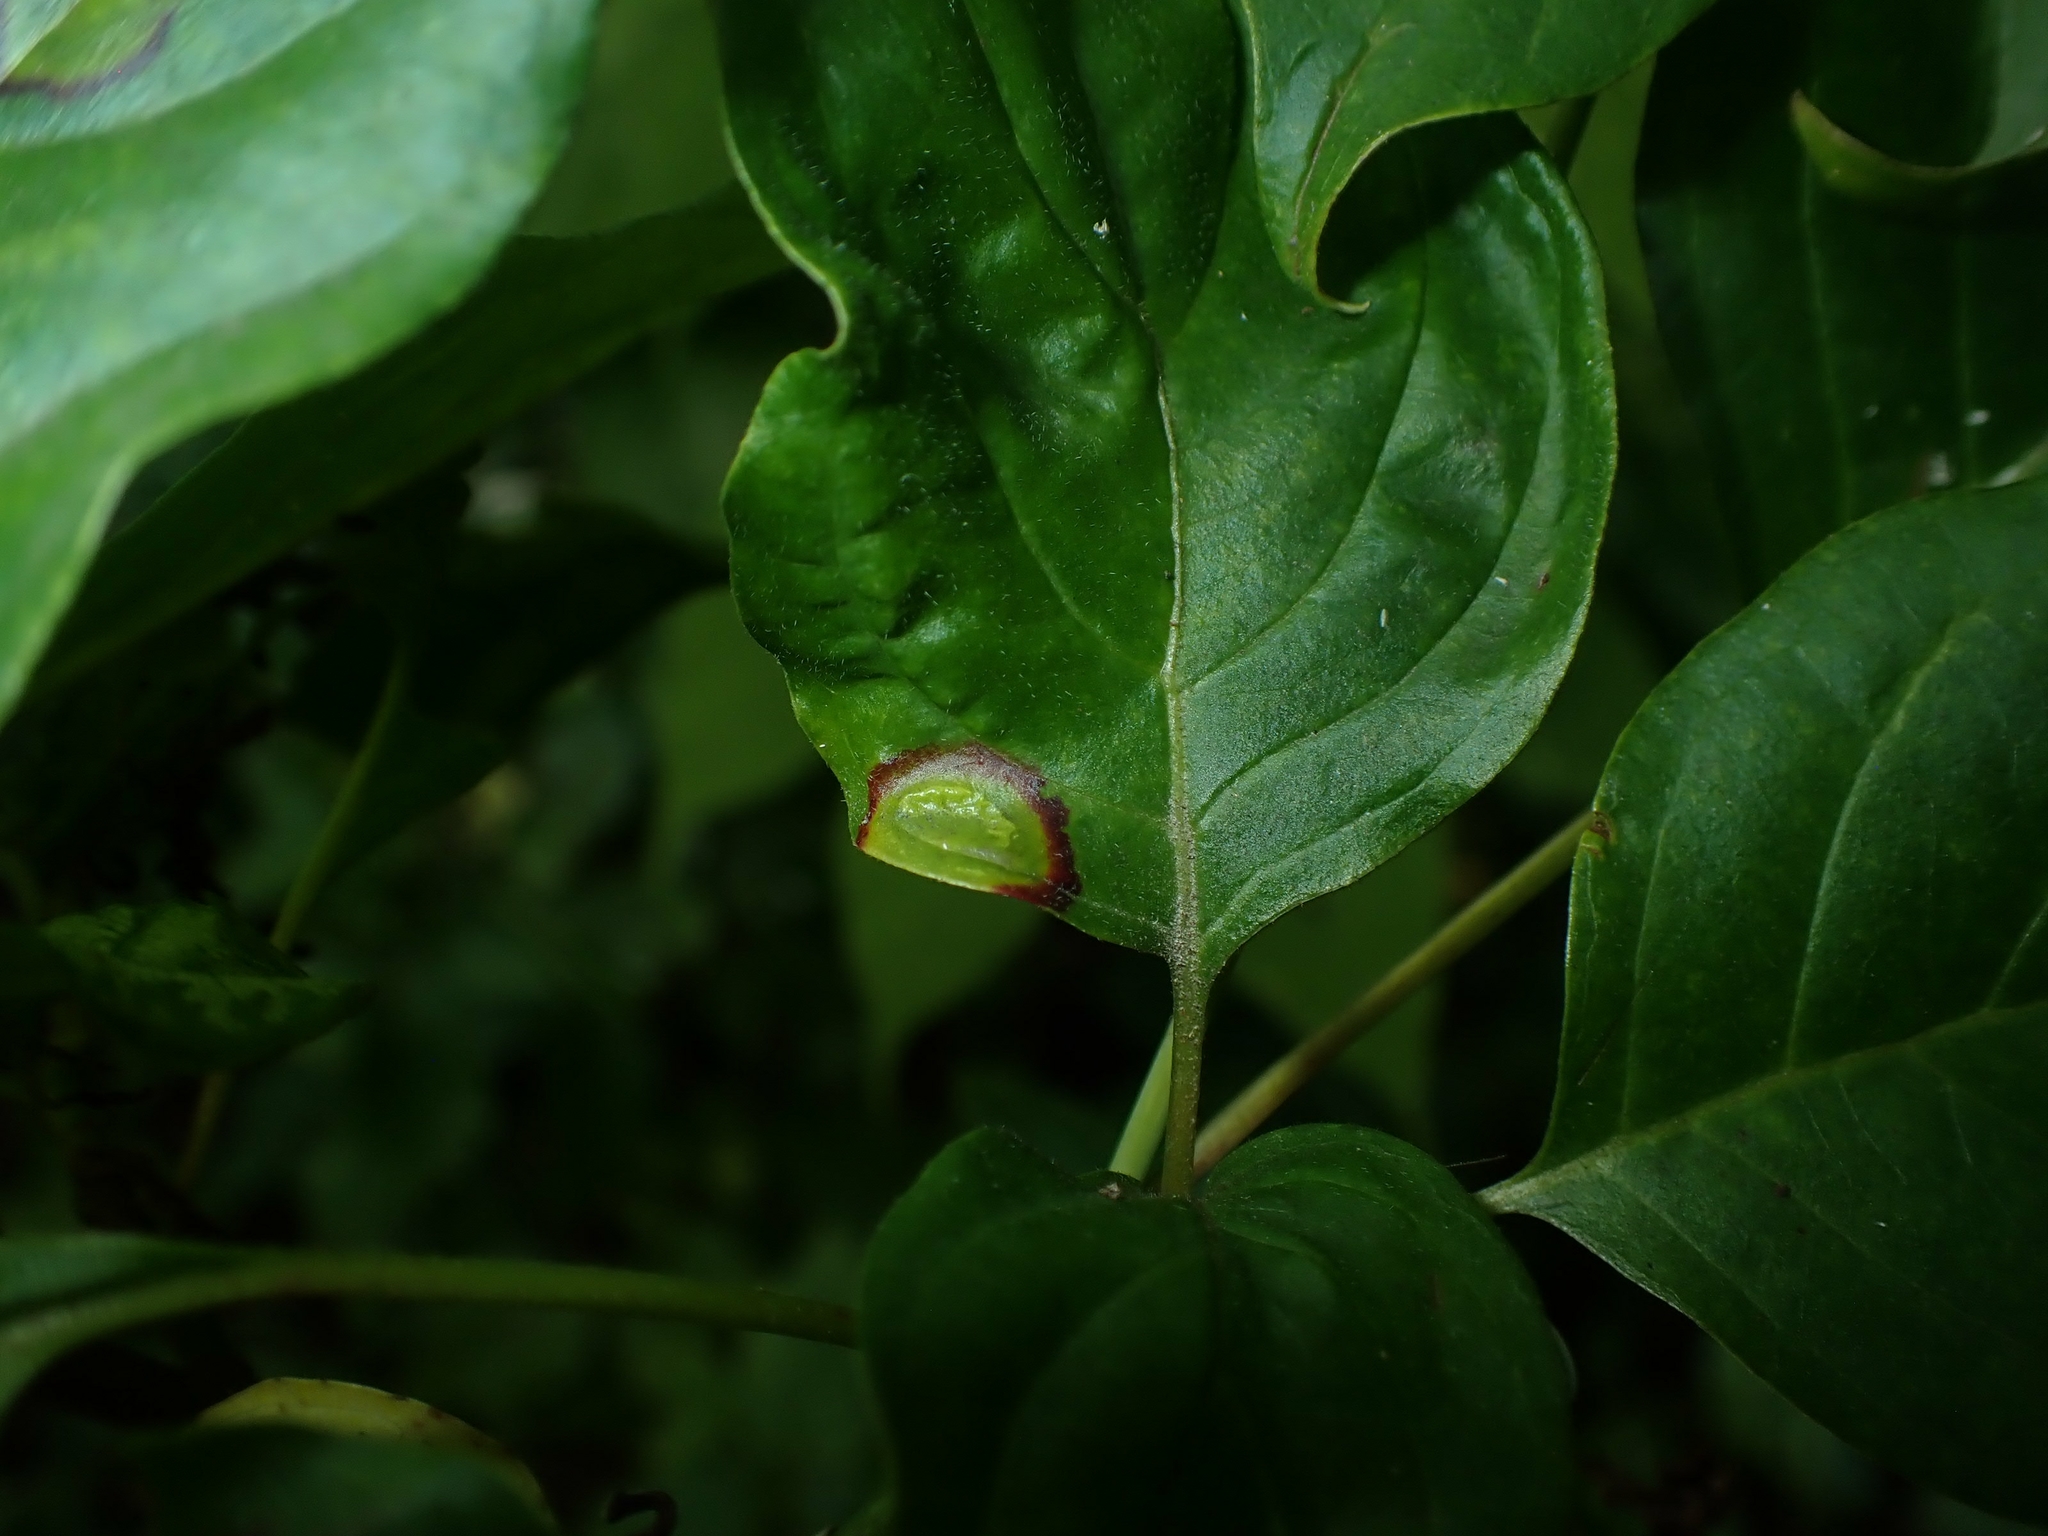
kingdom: Animalia
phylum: Arthropoda
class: Insecta
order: Diptera
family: Cecidomyiidae
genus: Parallelodiplosis
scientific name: Parallelodiplosis subtruncata
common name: Dogwood eyespot gall midge
